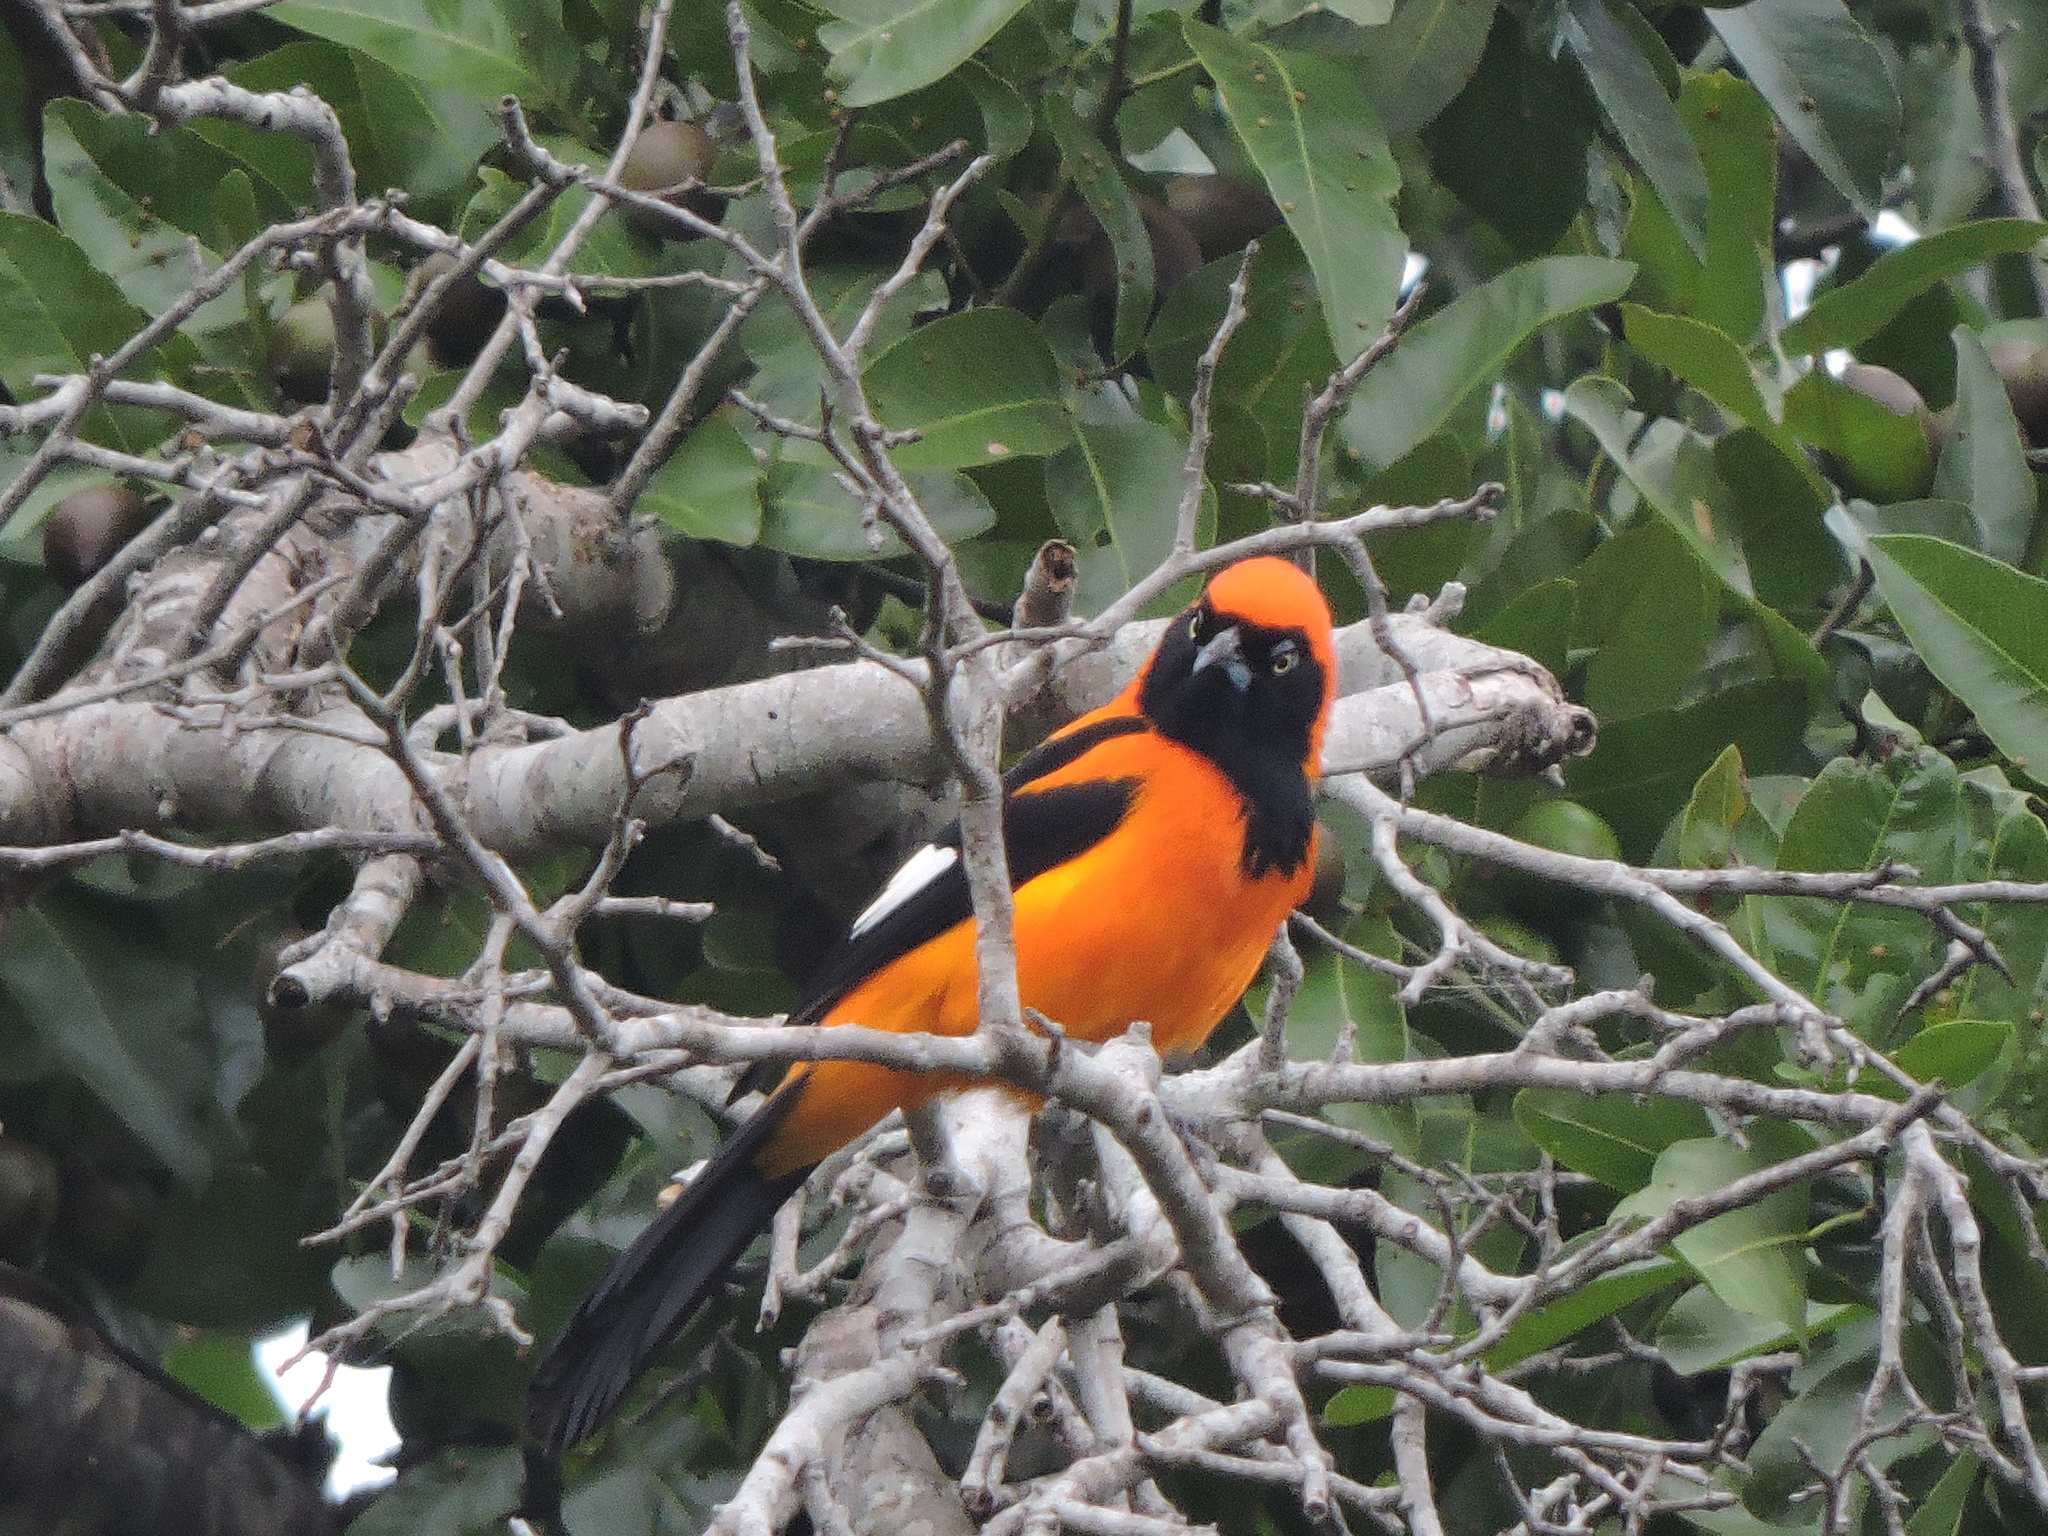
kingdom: Animalia
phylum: Chordata
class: Aves
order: Passeriformes
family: Icteridae
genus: Icterus
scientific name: Icterus icterus
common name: Venezuelan troupial
